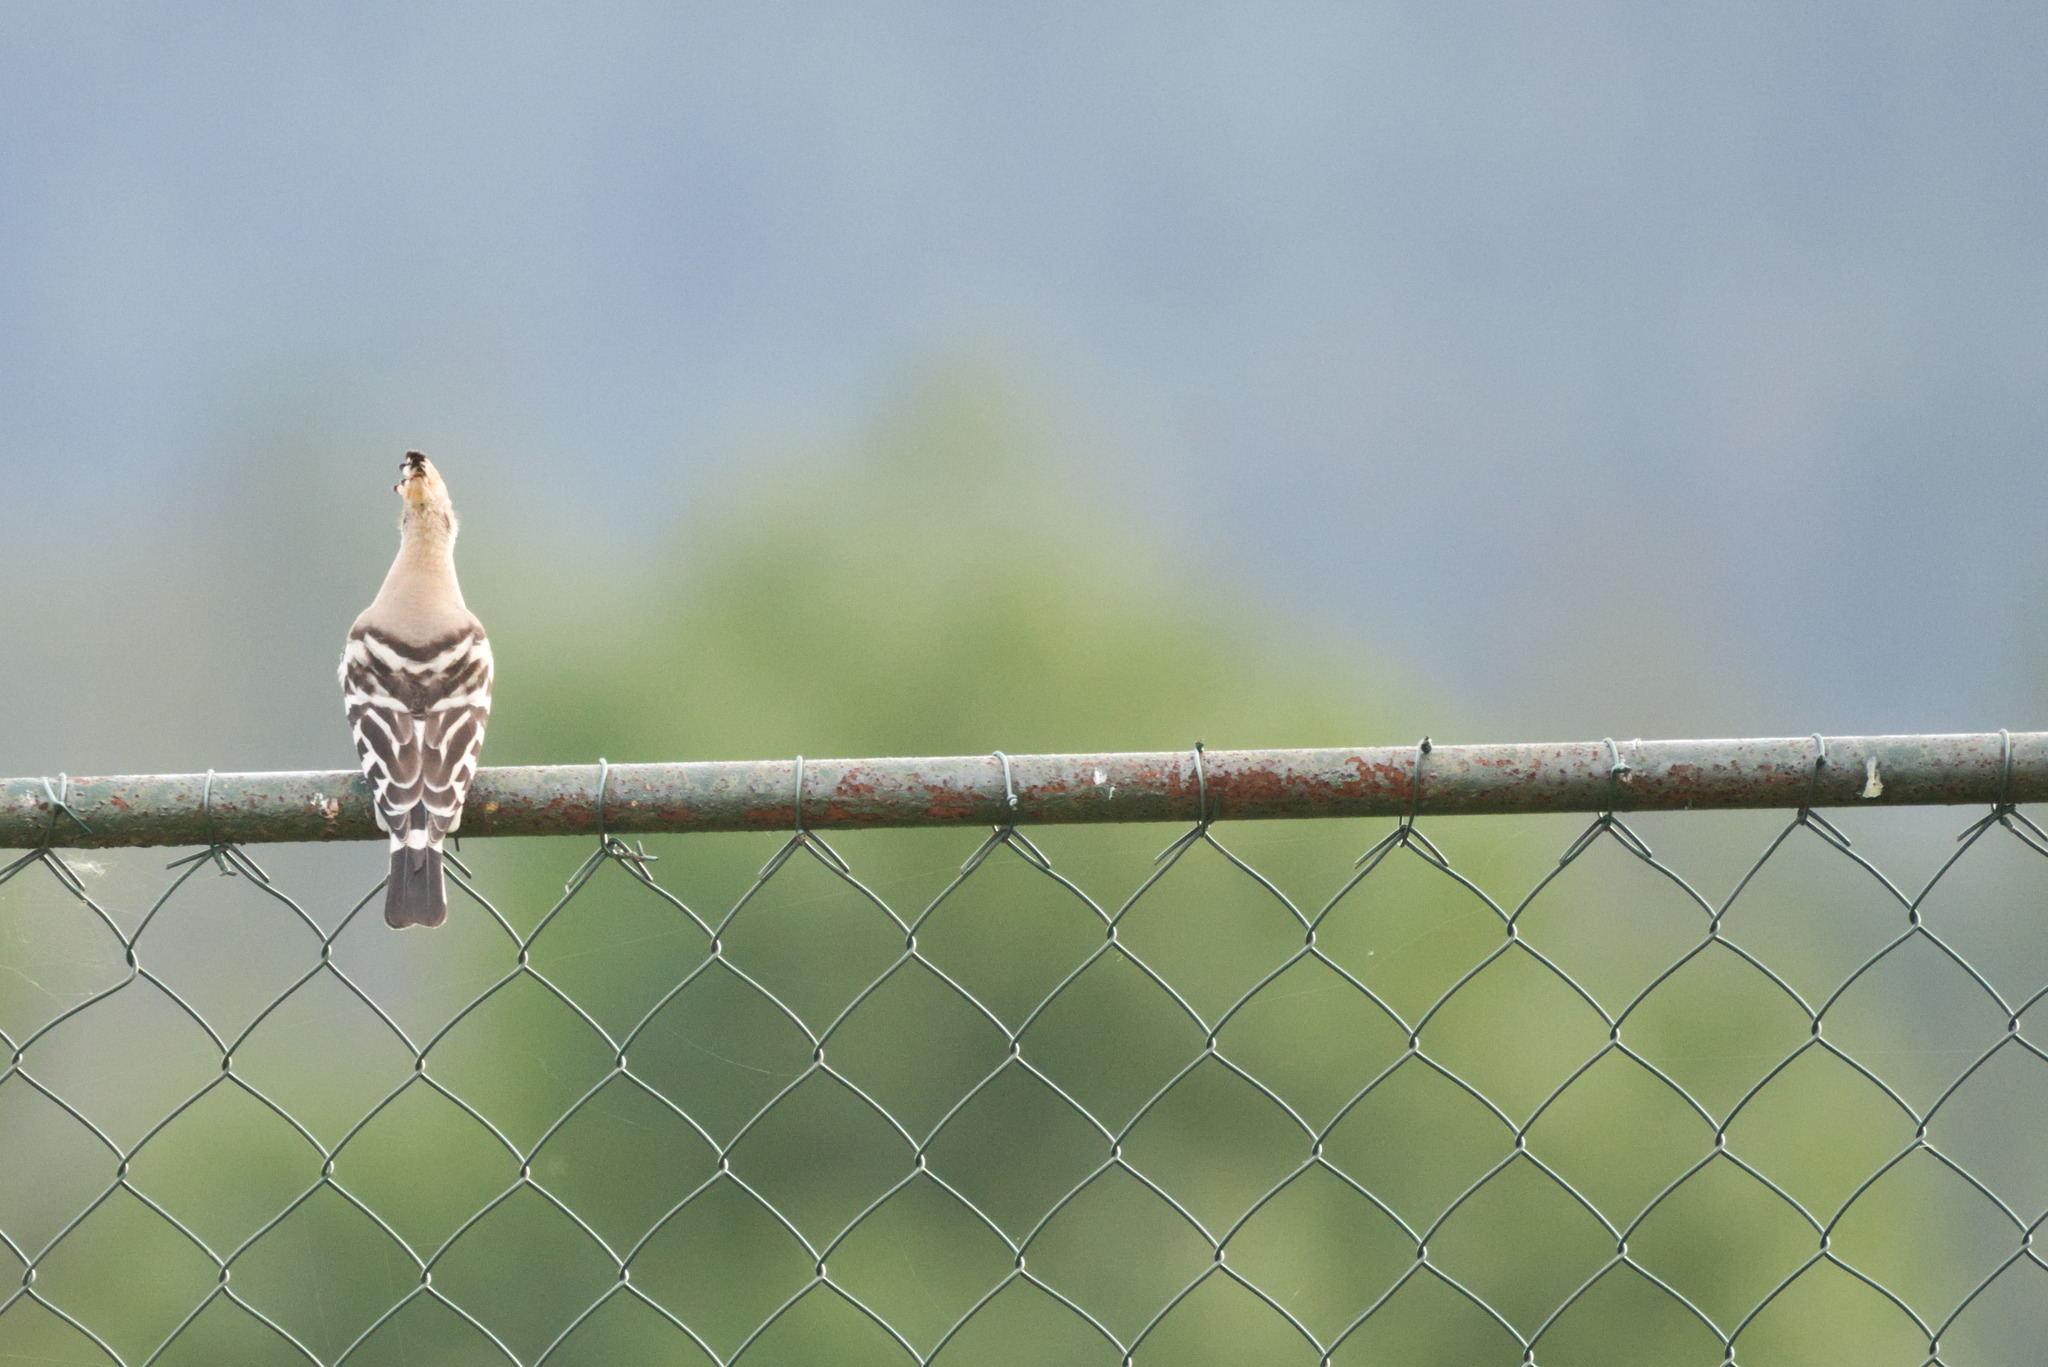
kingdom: Animalia
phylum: Chordata
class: Aves
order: Bucerotiformes
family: Upupidae
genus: Upupa
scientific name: Upupa epops
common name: Eurasian hoopoe
